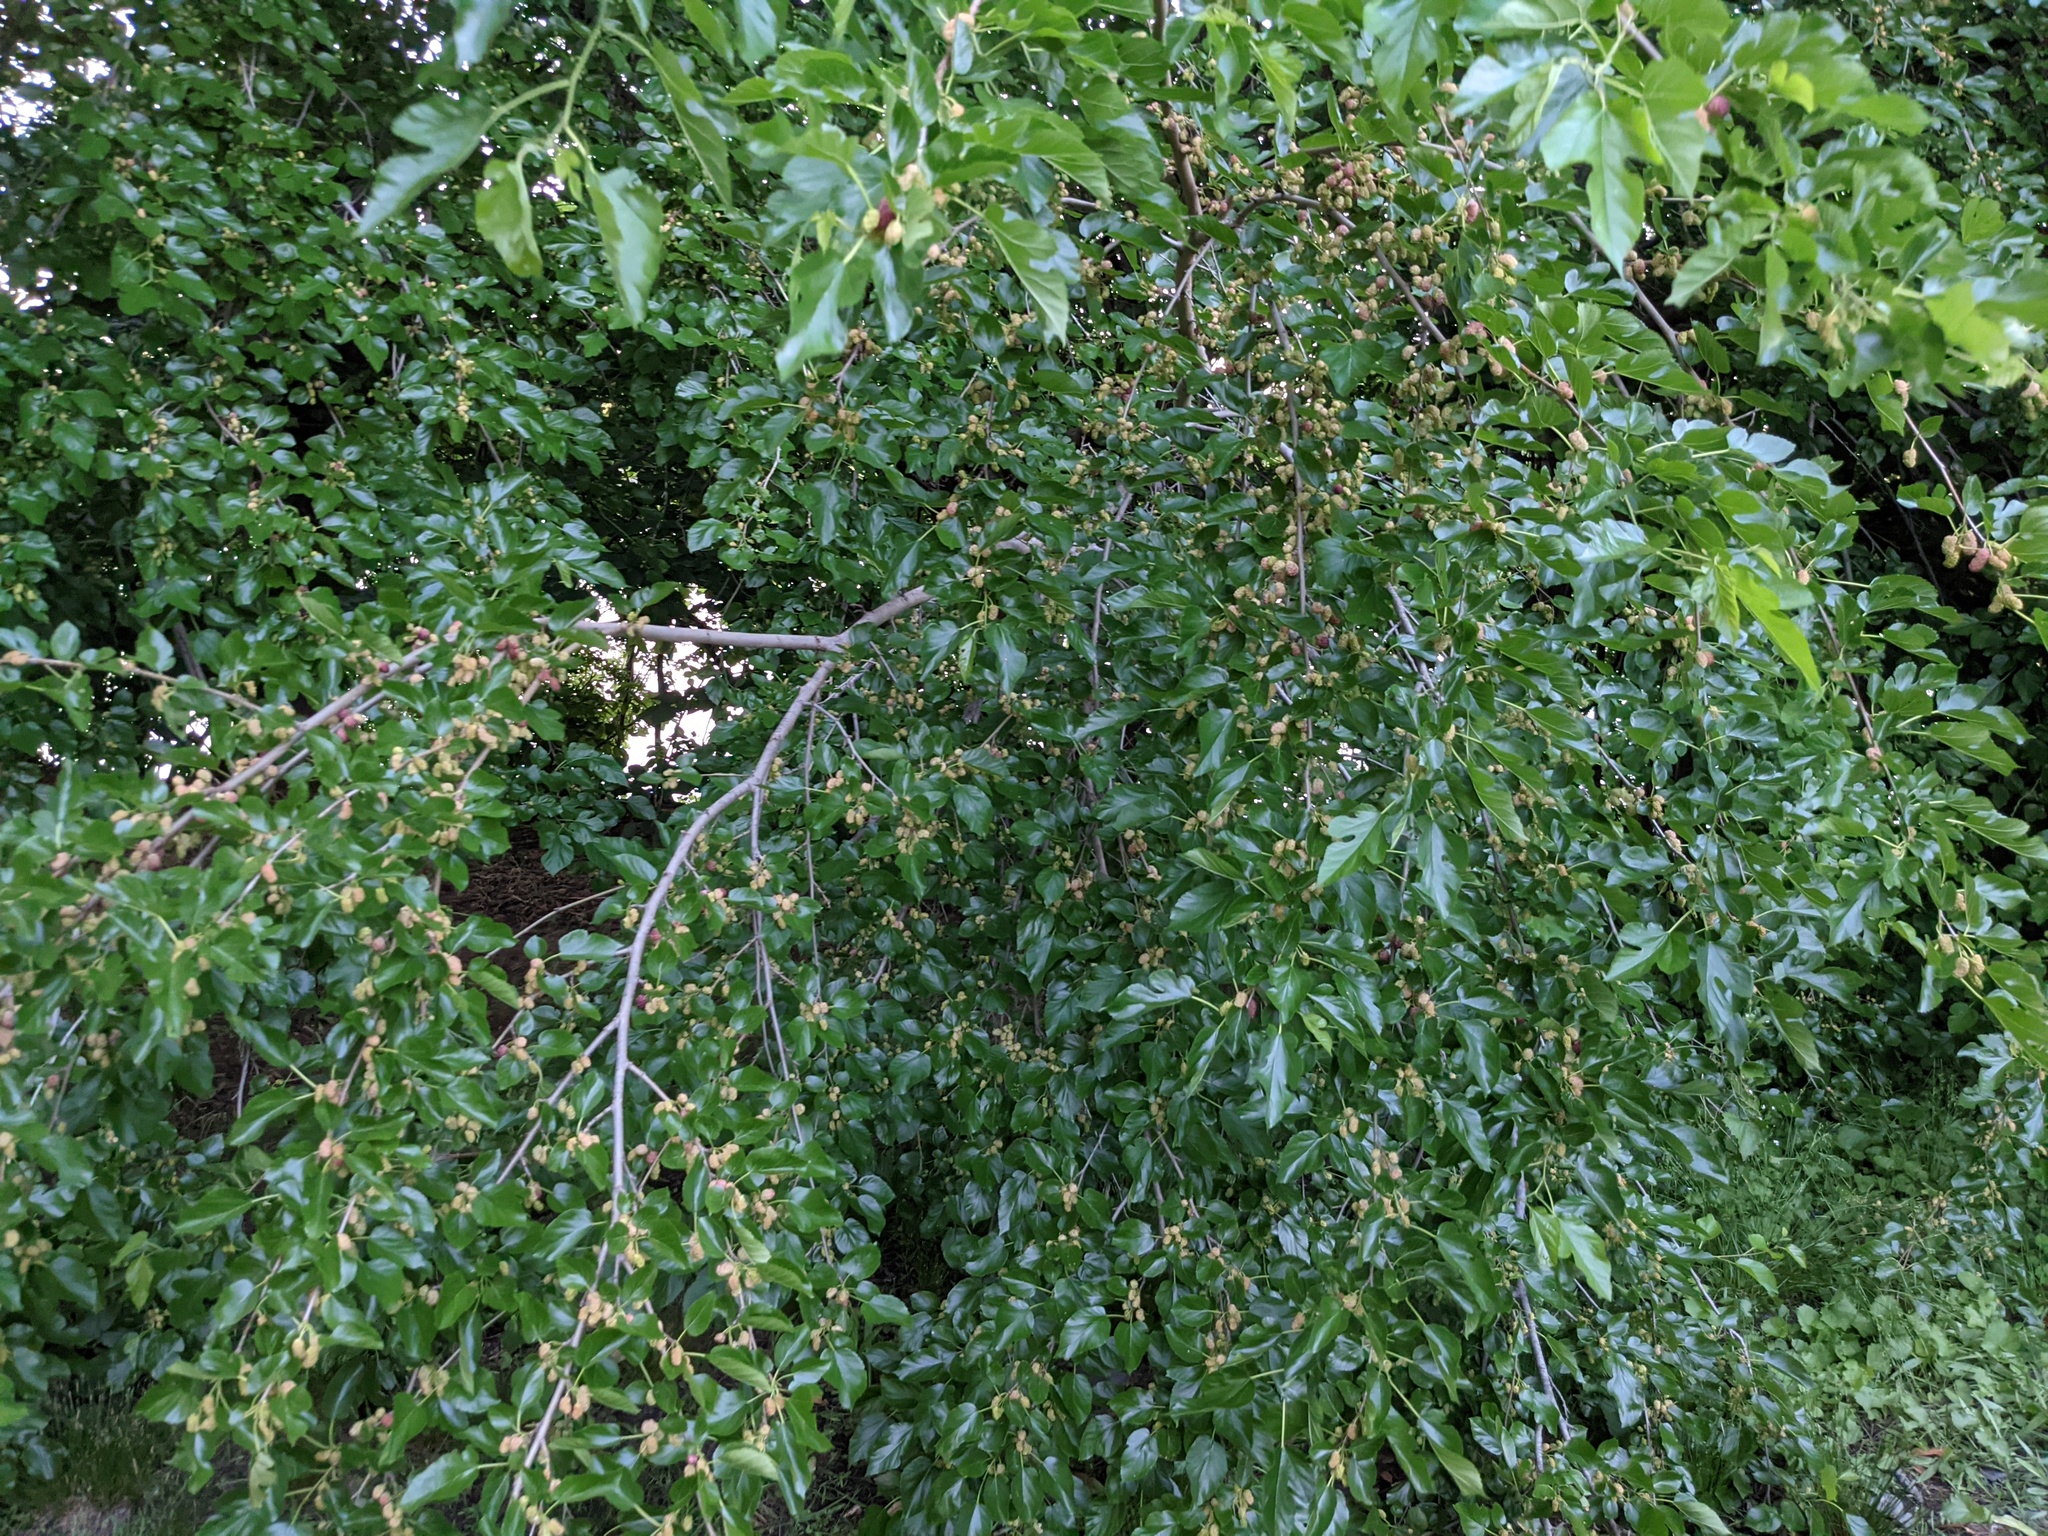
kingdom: Plantae
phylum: Tracheophyta
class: Magnoliopsida
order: Rosales
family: Moraceae
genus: Morus
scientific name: Morus alba
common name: White mulberry
